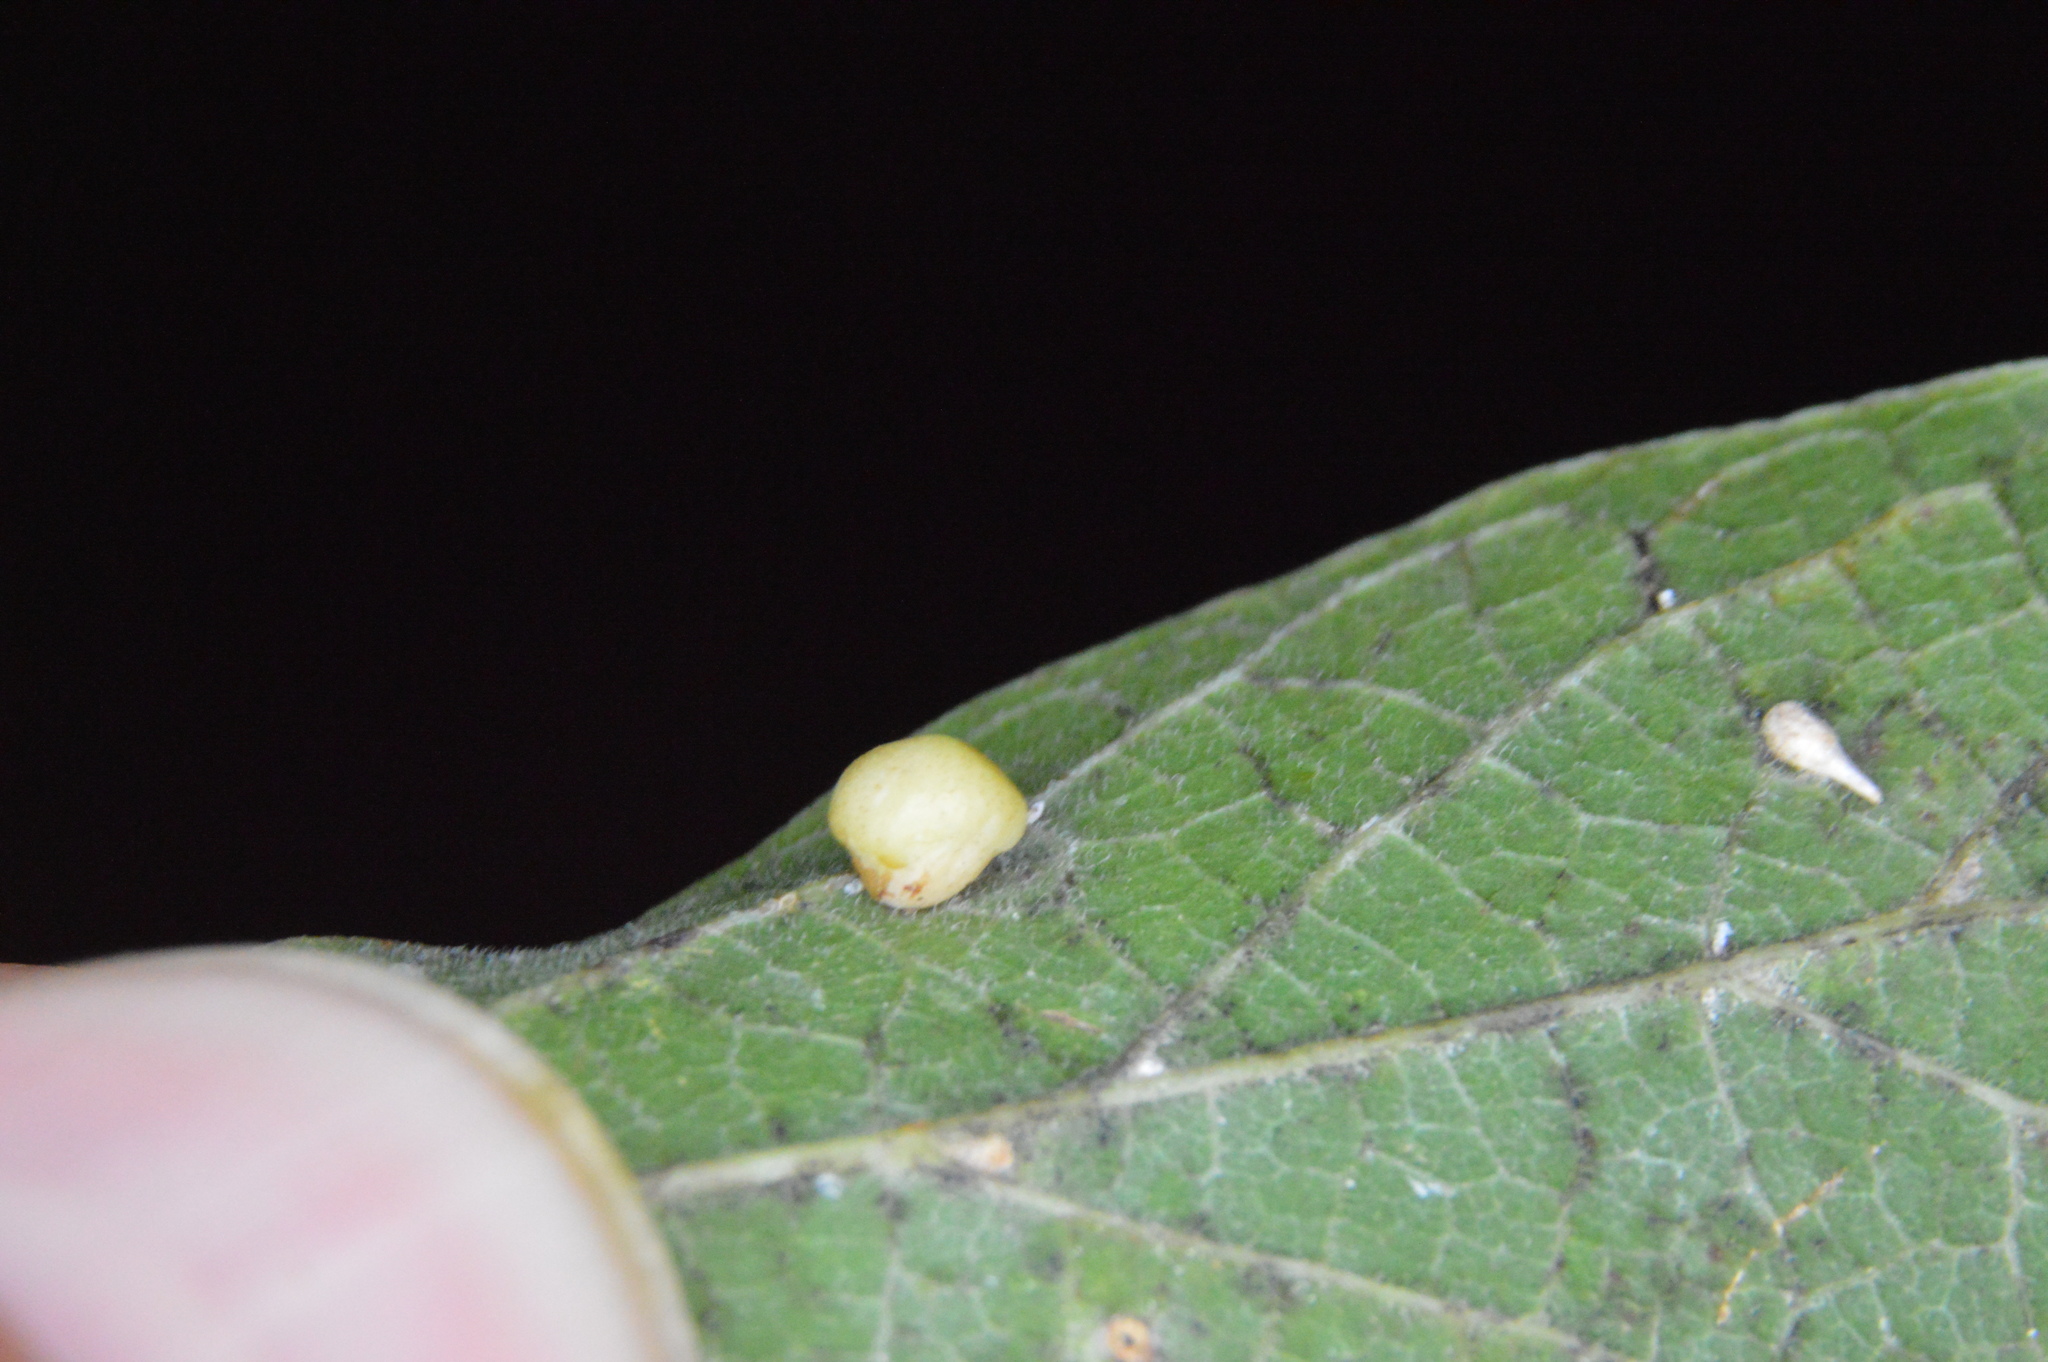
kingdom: Animalia
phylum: Arthropoda
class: Insecta
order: Diptera
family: Cecidomyiidae
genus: Celticecis
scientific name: Celticecis globosa
